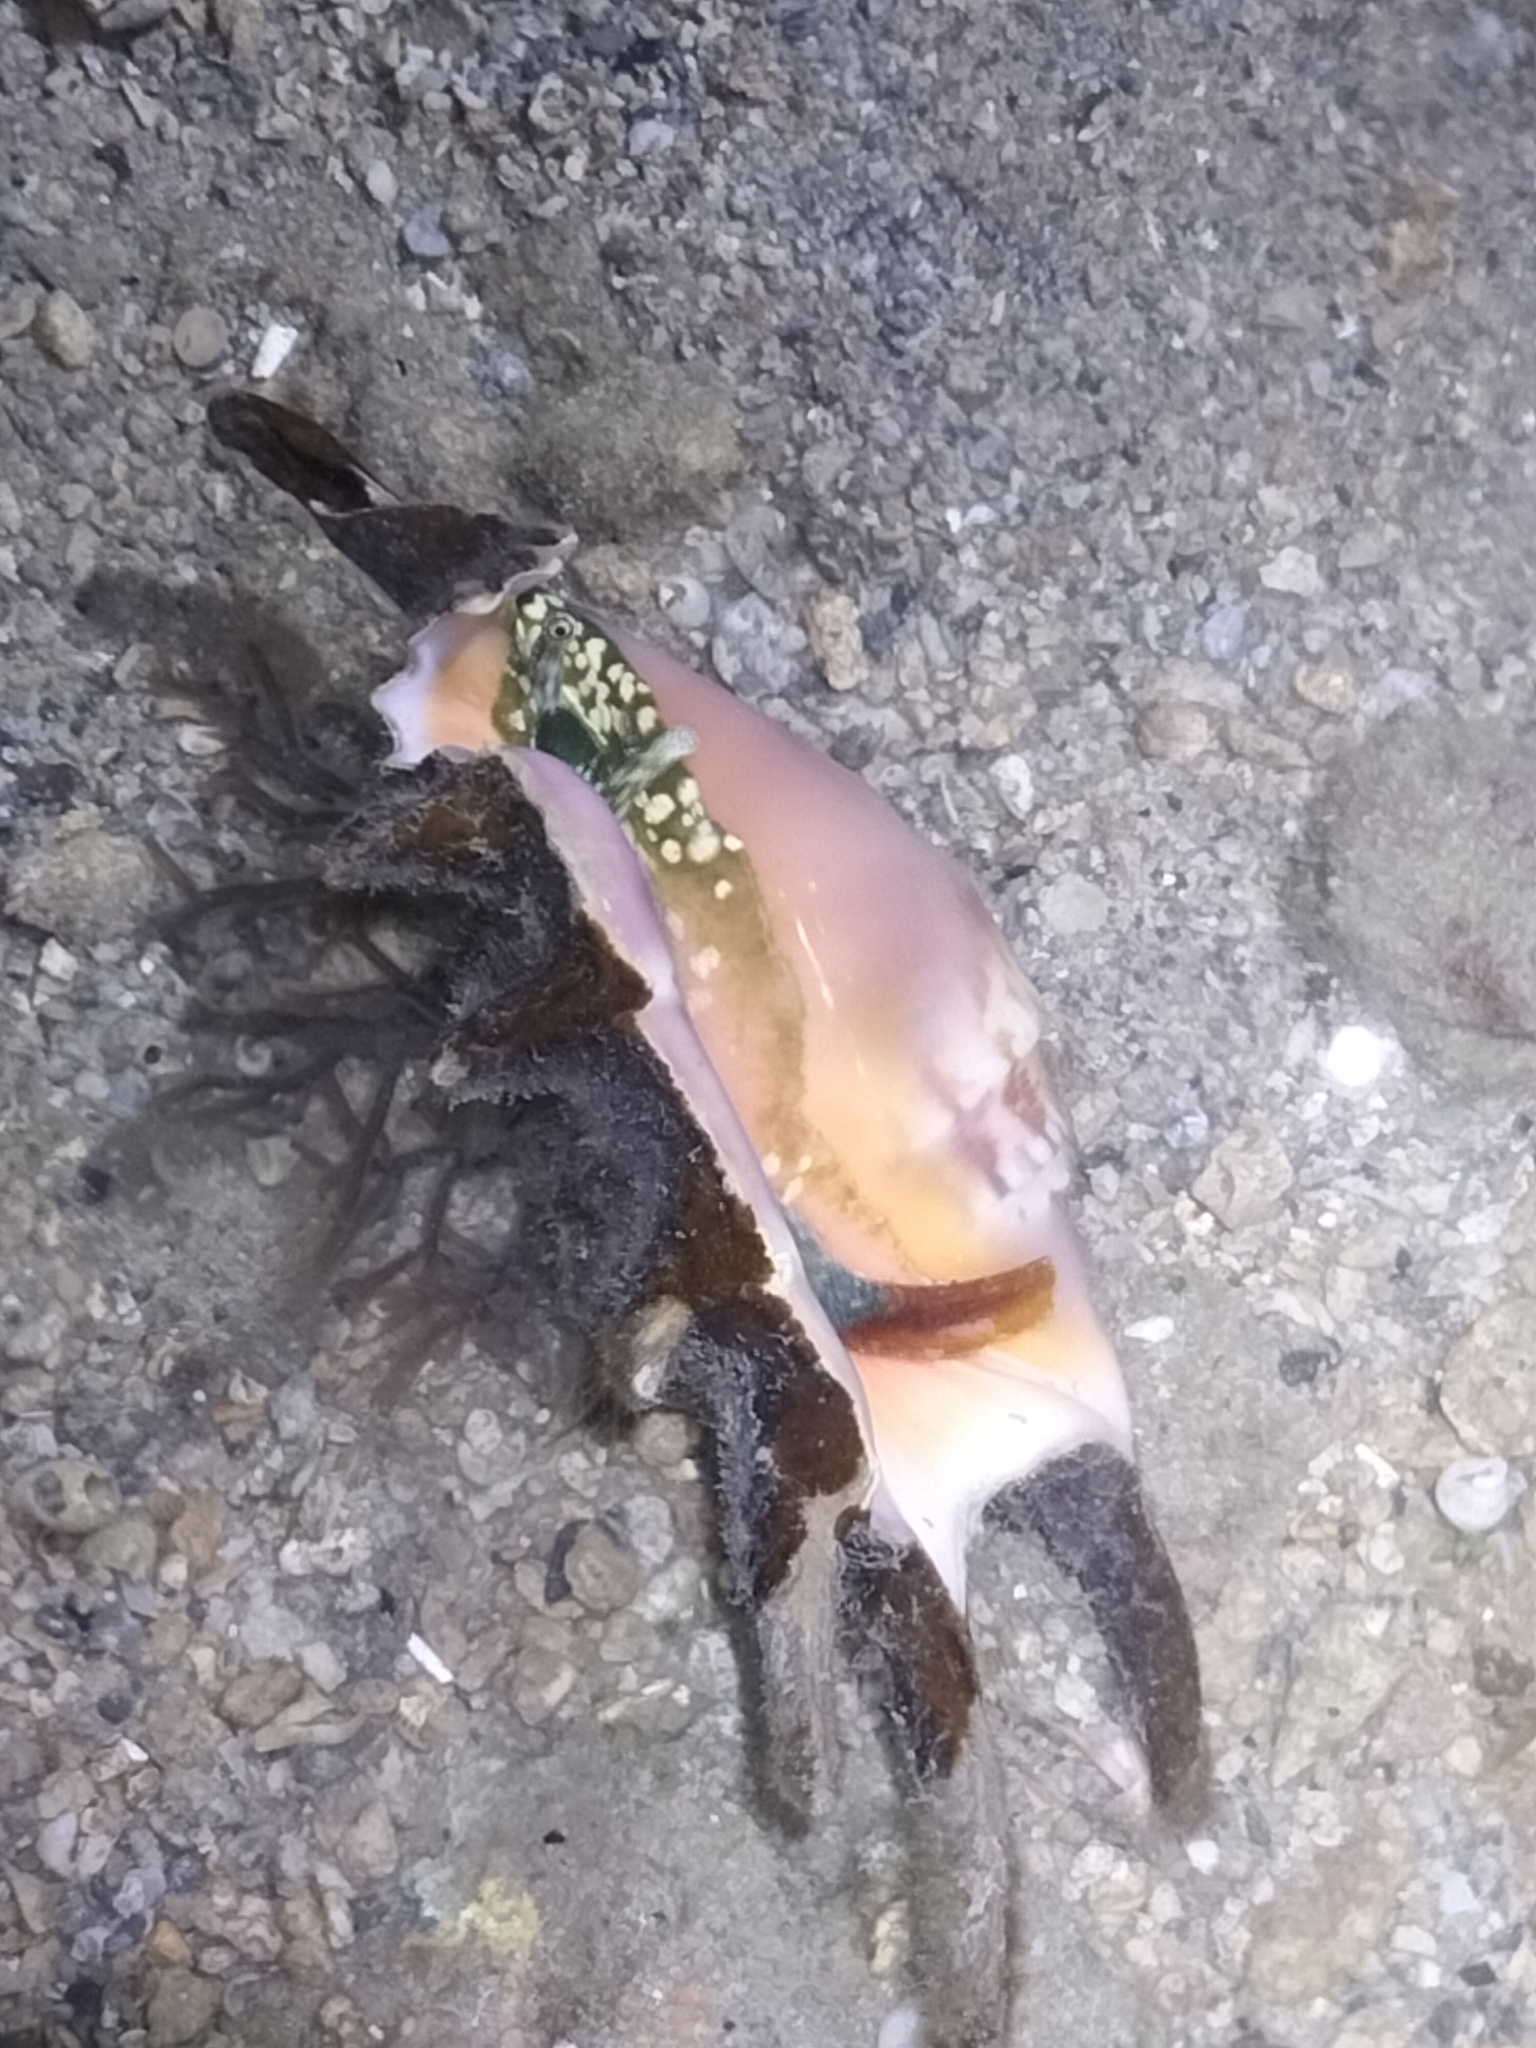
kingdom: Animalia
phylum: Mollusca
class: Gastropoda
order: Littorinimorpha
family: Strombidae
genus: Lambis
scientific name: Lambis lambis
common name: Common spider conch
